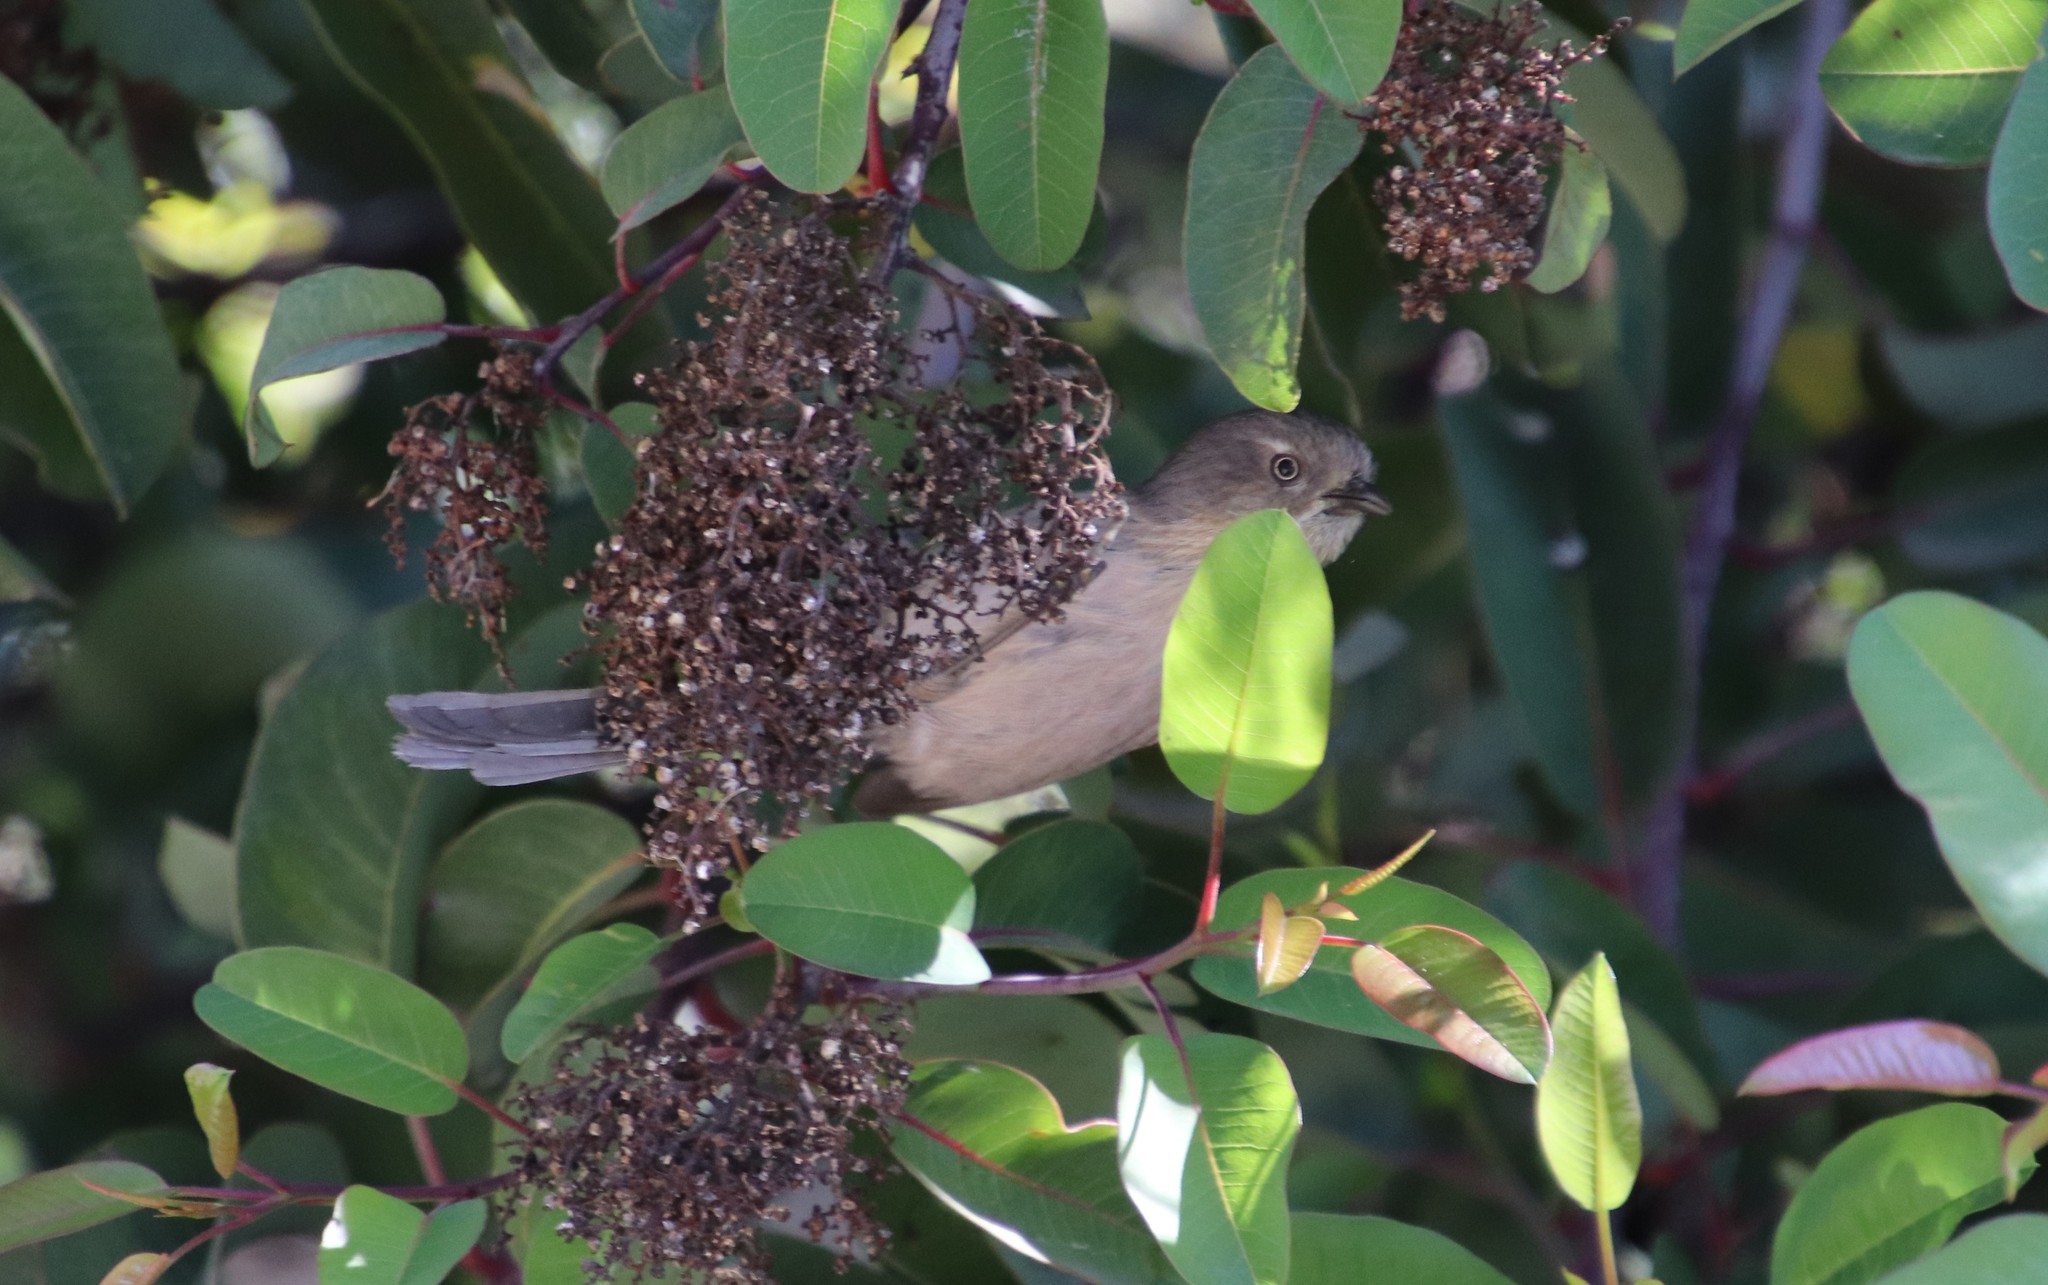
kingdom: Animalia
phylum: Chordata
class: Aves
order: Passeriformes
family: Sylviidae
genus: Chamaea
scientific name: Chamaea fasciata
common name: Wrentit
